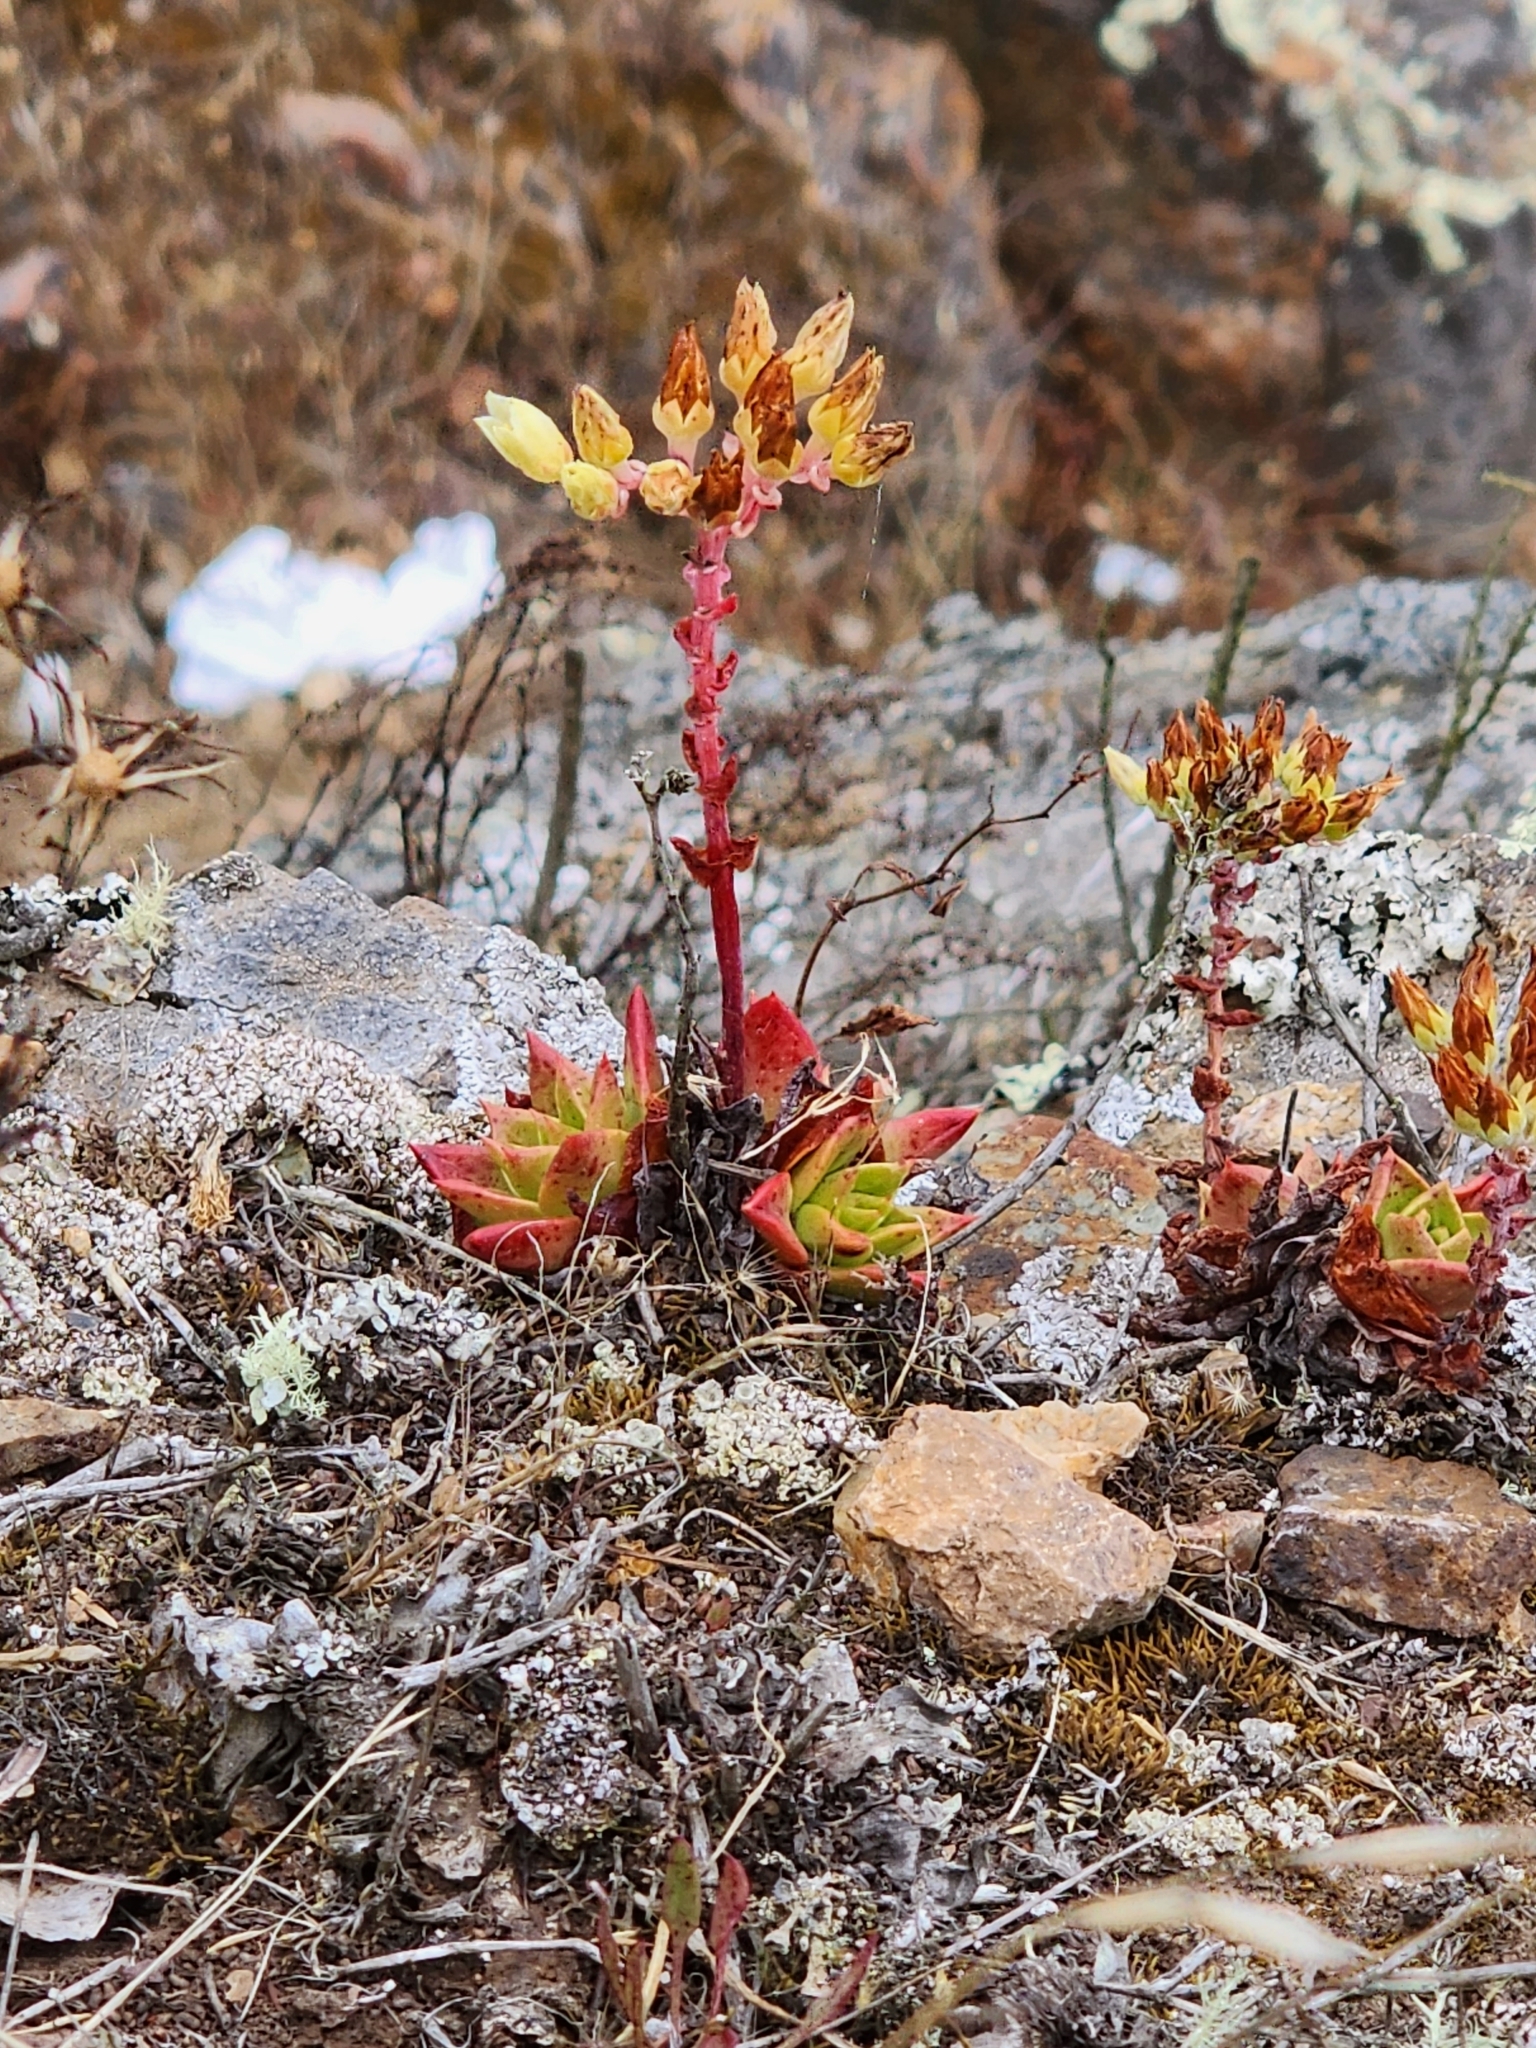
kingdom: Plantae
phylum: Tracheophyta
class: Magnoliopsida
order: Saxifragales
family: Crassulaceae
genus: Dudleya
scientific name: Dudleya farinosa
